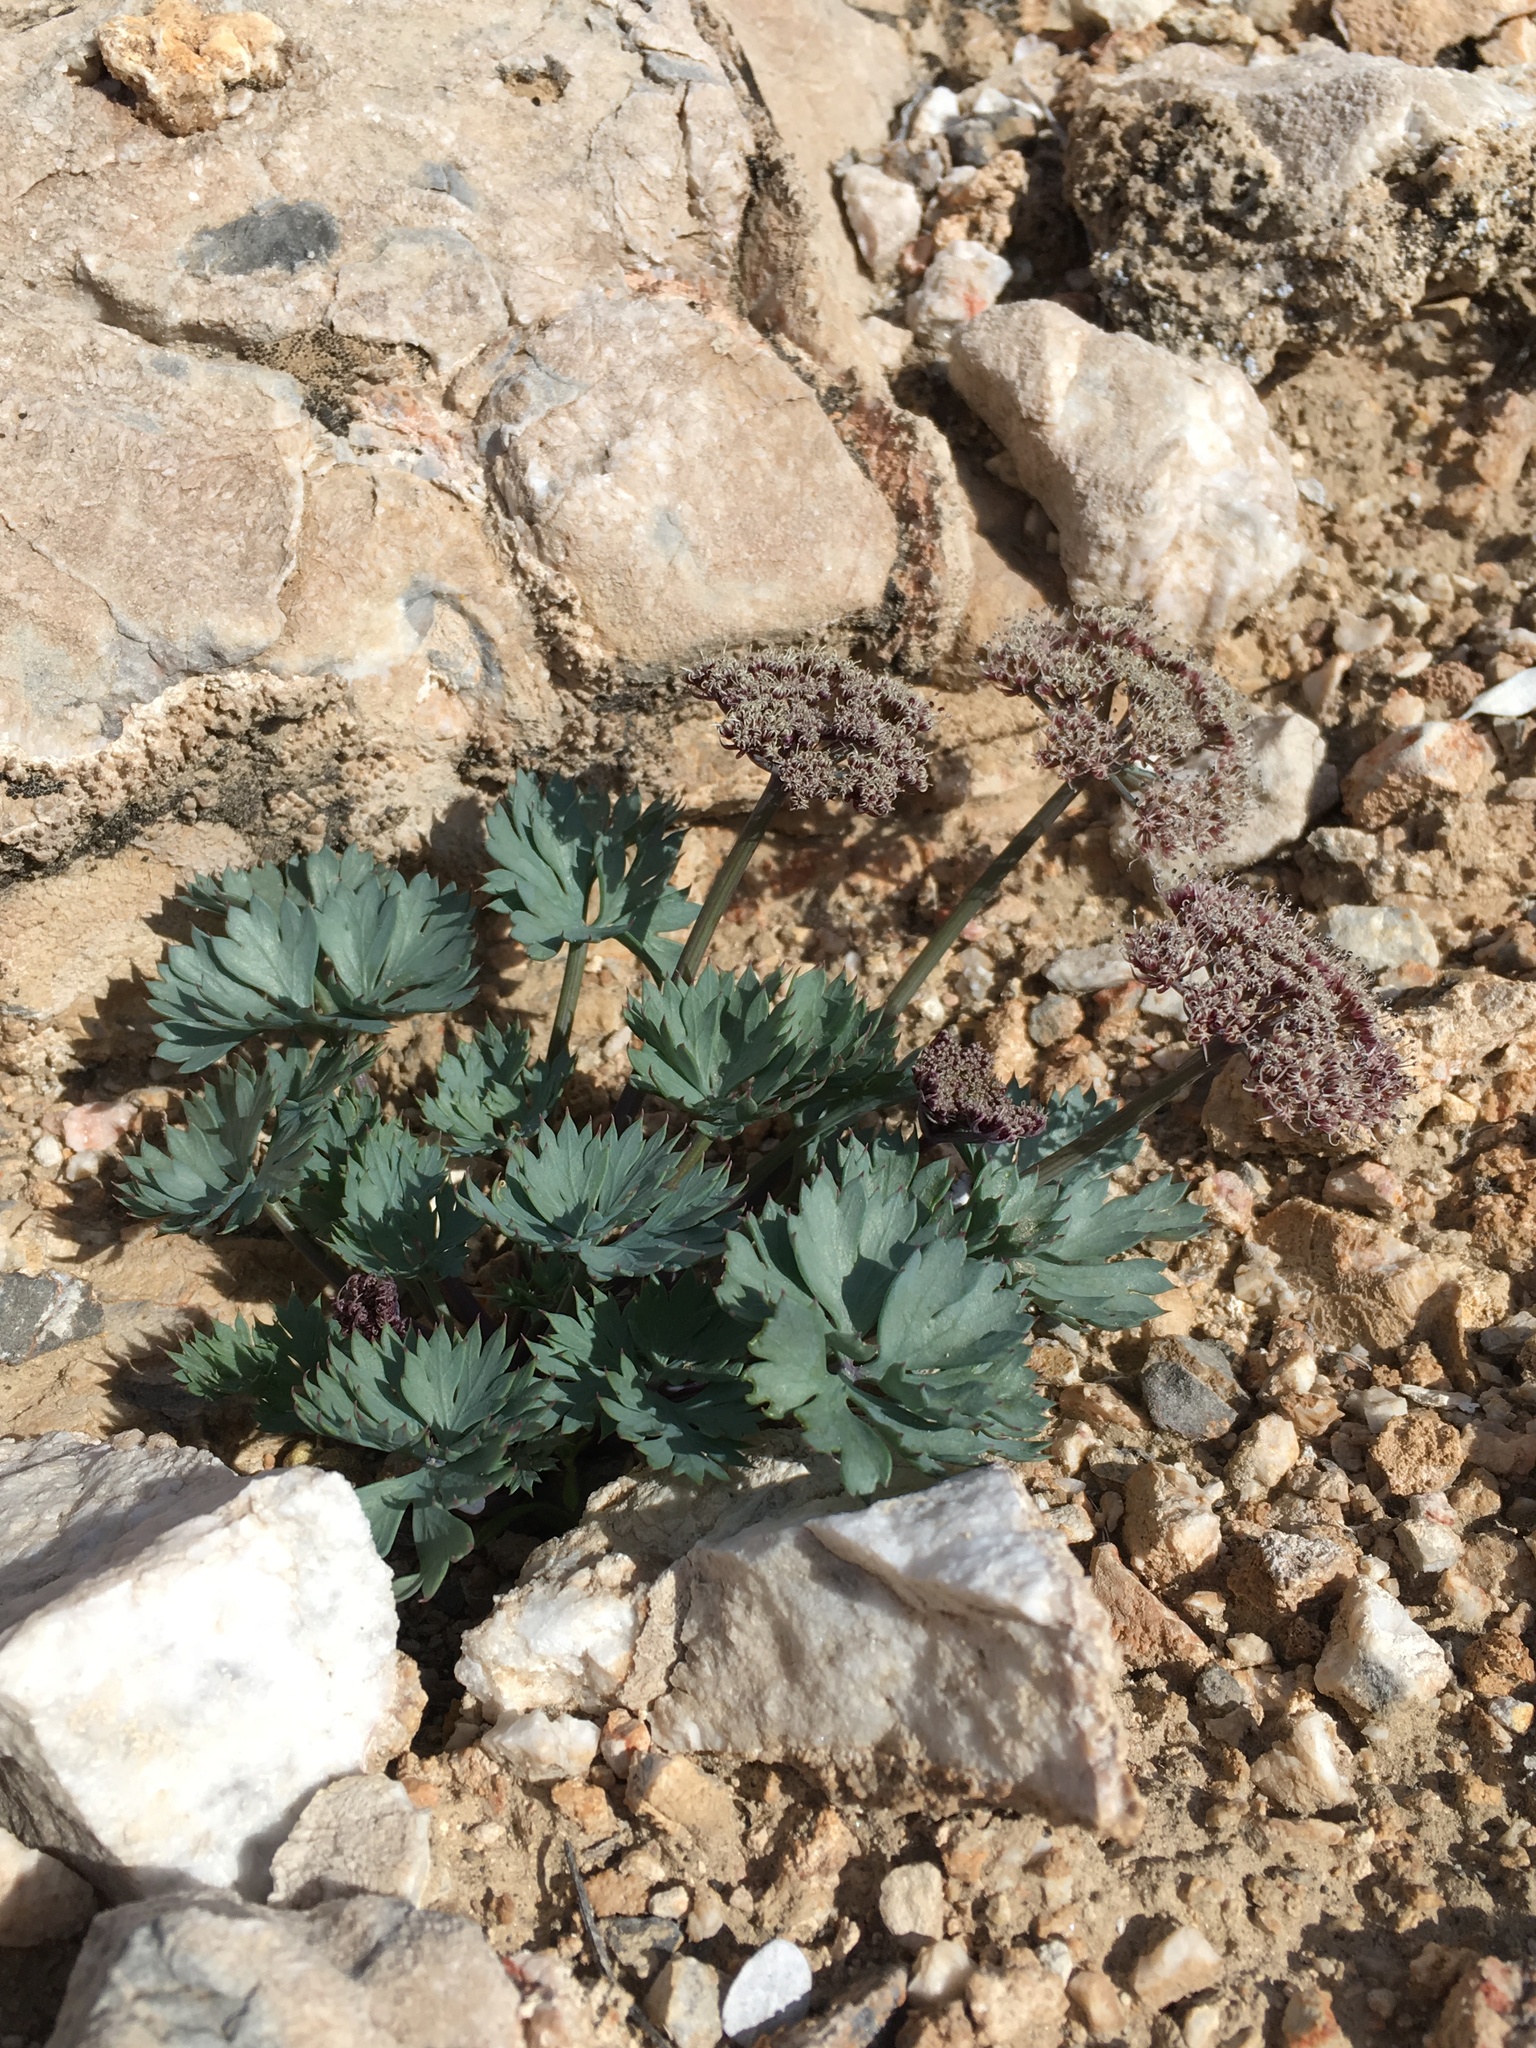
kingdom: Plantae
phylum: Tracheophyta
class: Magnoliopsida
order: Apiales
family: Apiaceae
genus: Cymopterus
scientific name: Cymopterus gilmanii
